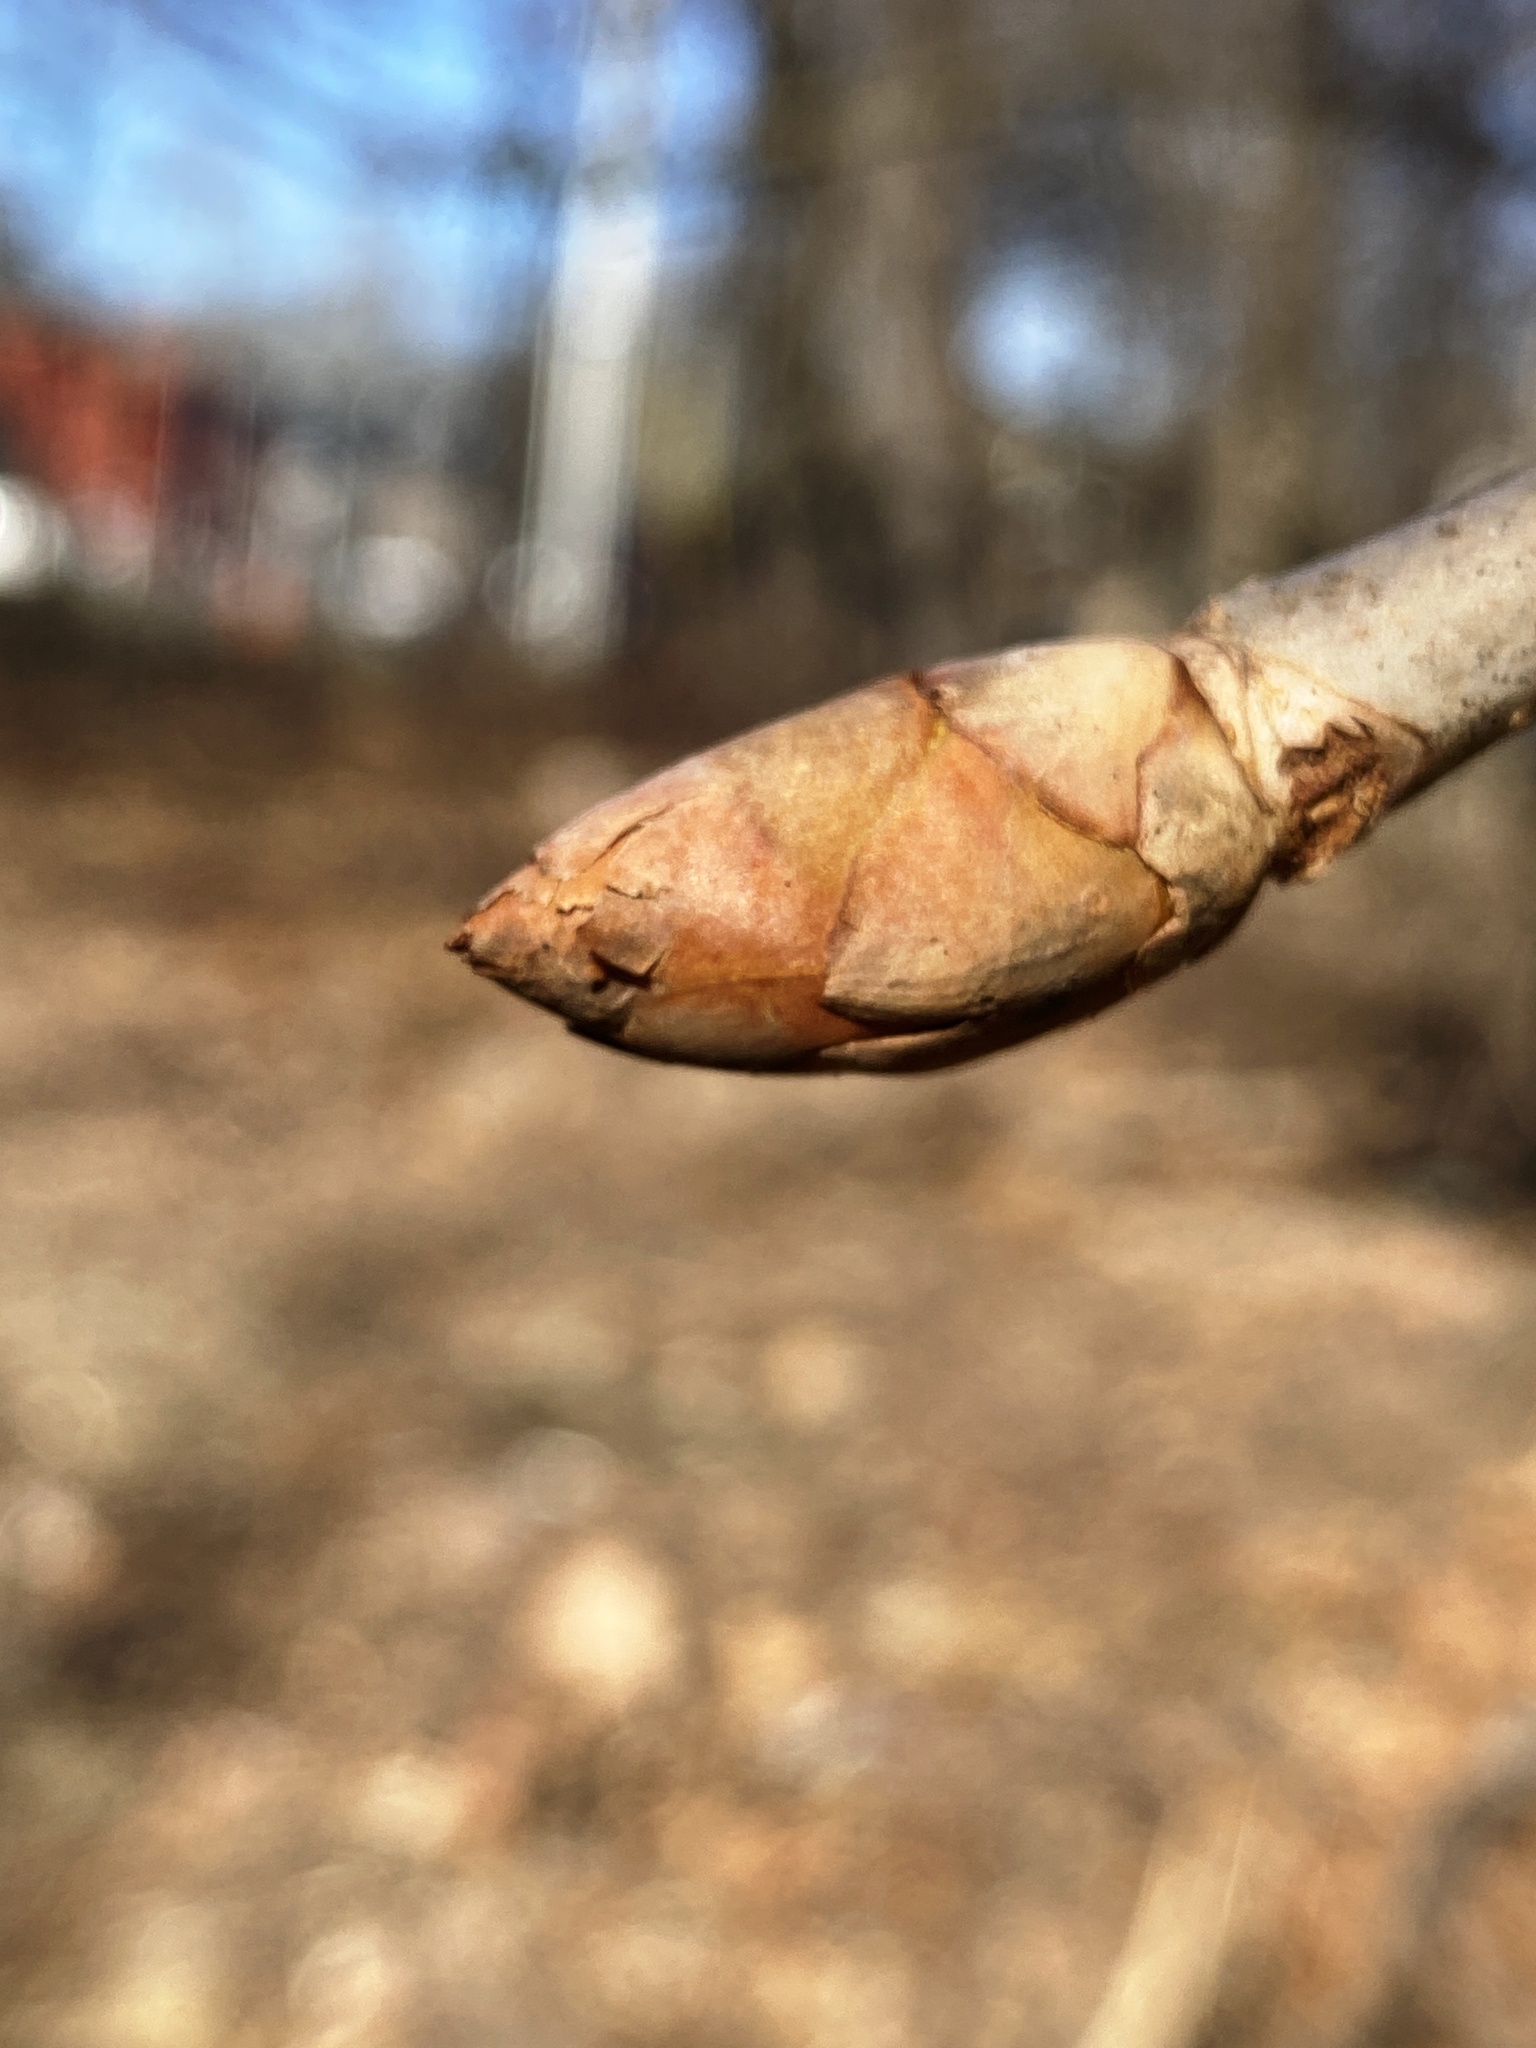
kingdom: Plantae
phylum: Tracheophyta
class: Magnoliopsida
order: Sapindales
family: Sapindaceae
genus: Aesculus
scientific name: Aesculus flava
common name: Yellow buckeye
